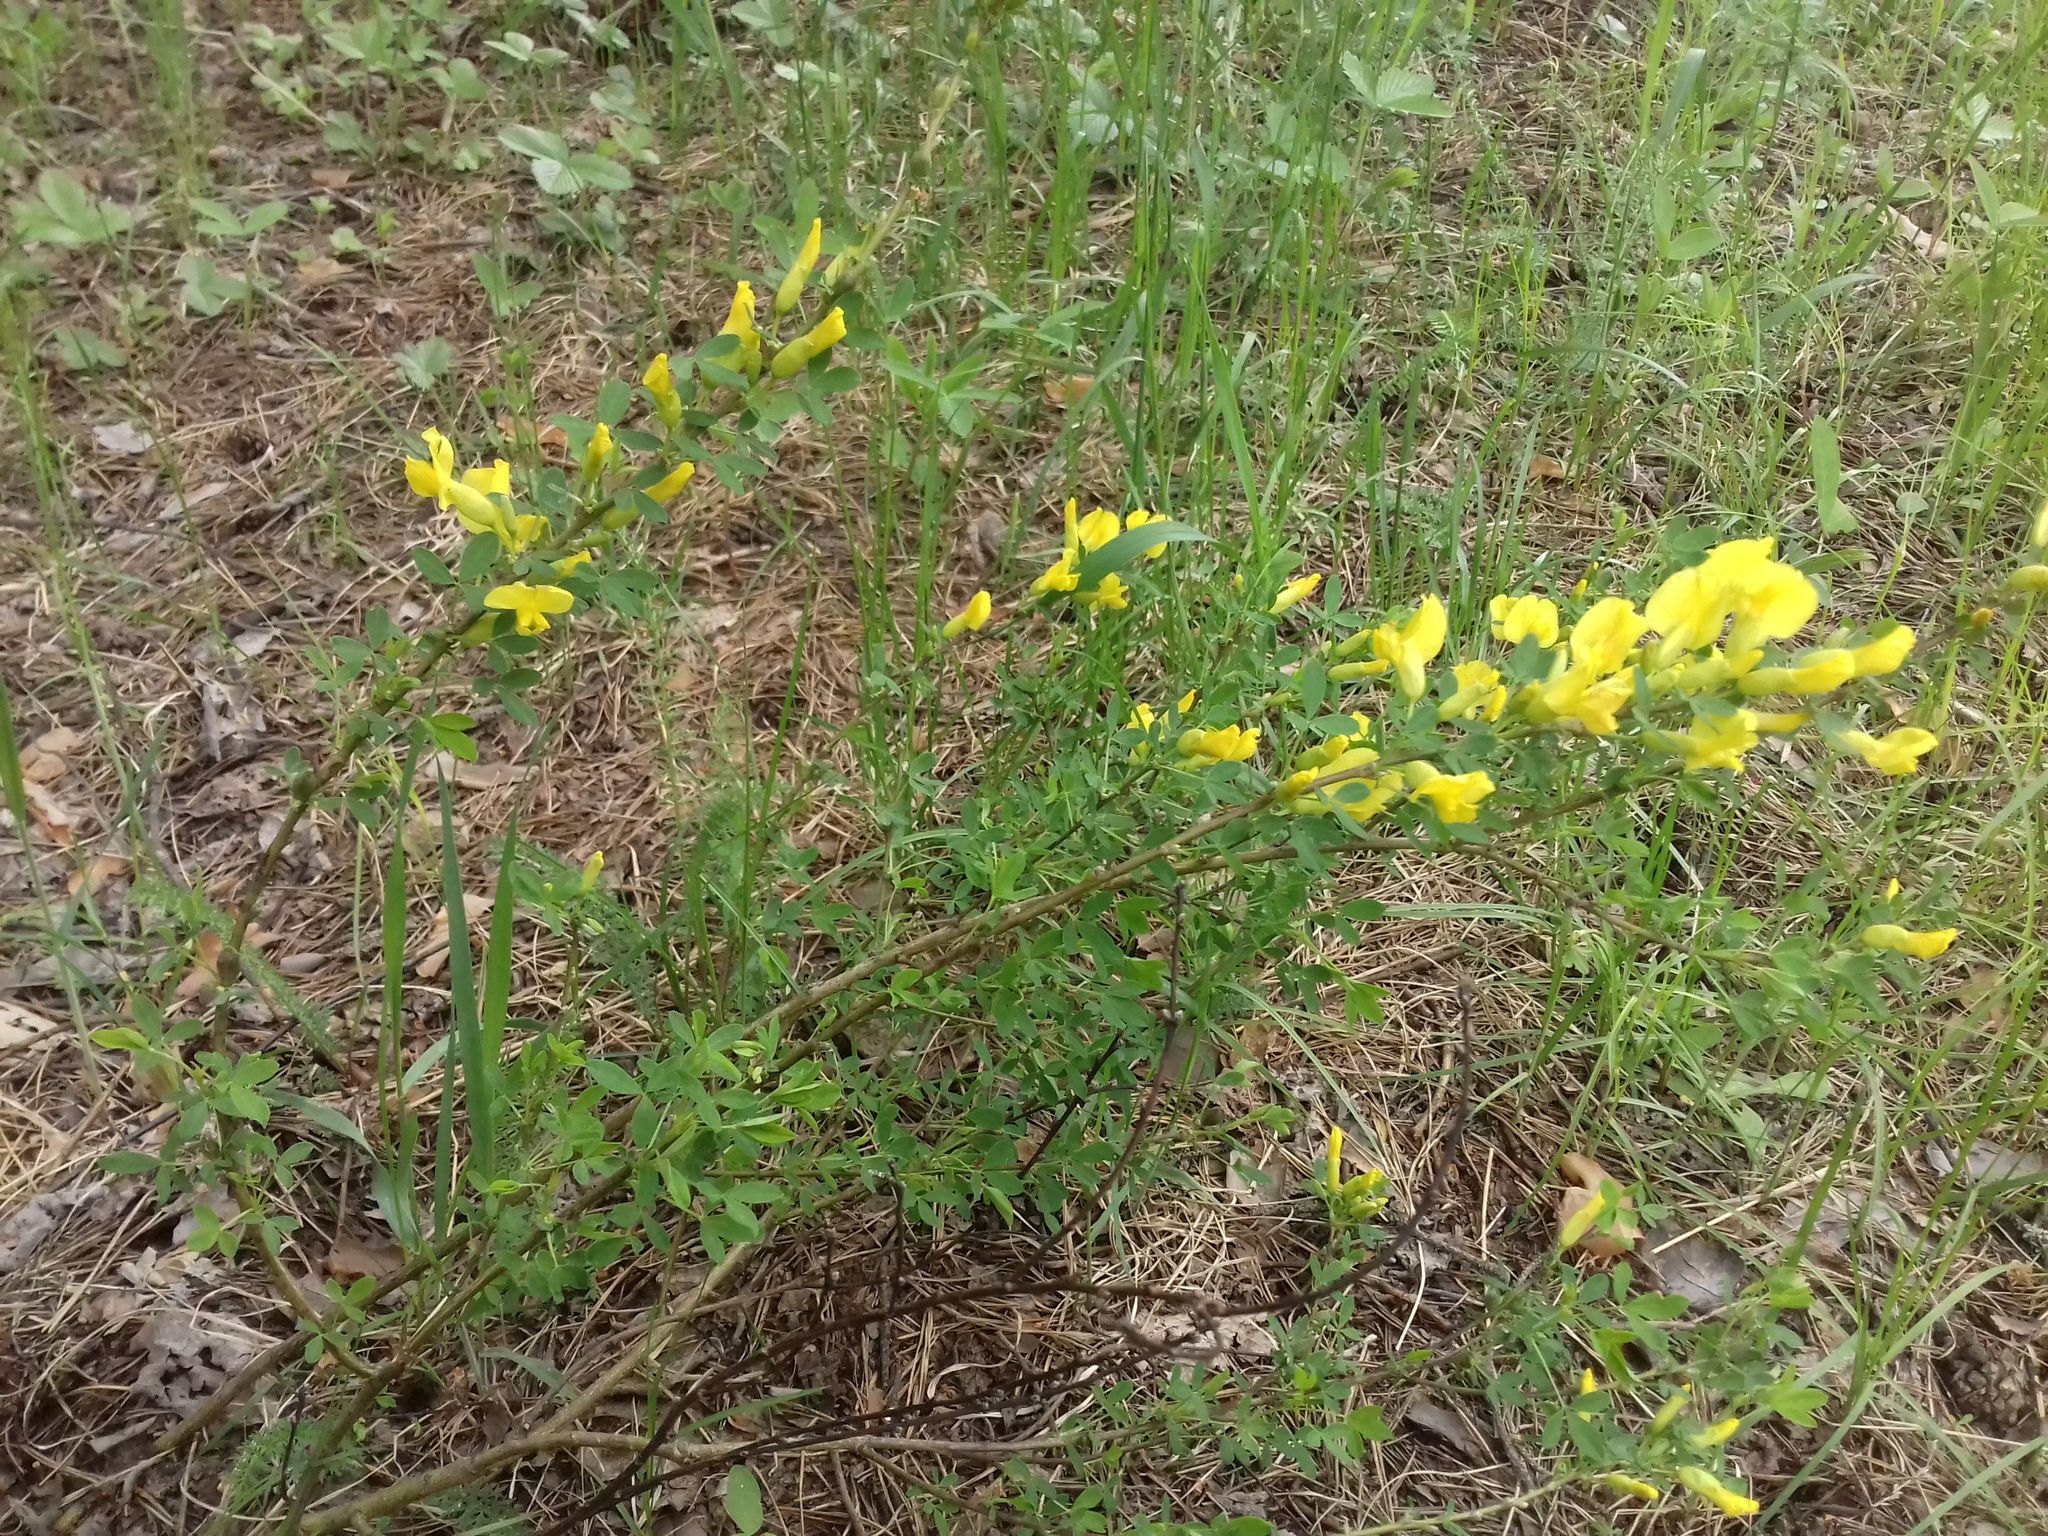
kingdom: Plantae
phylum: Tracheophyta
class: Magnoliopsida
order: Fabales
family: Fabaceae
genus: Chamaecytisus
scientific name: Chamaecytisus ruthenicus
